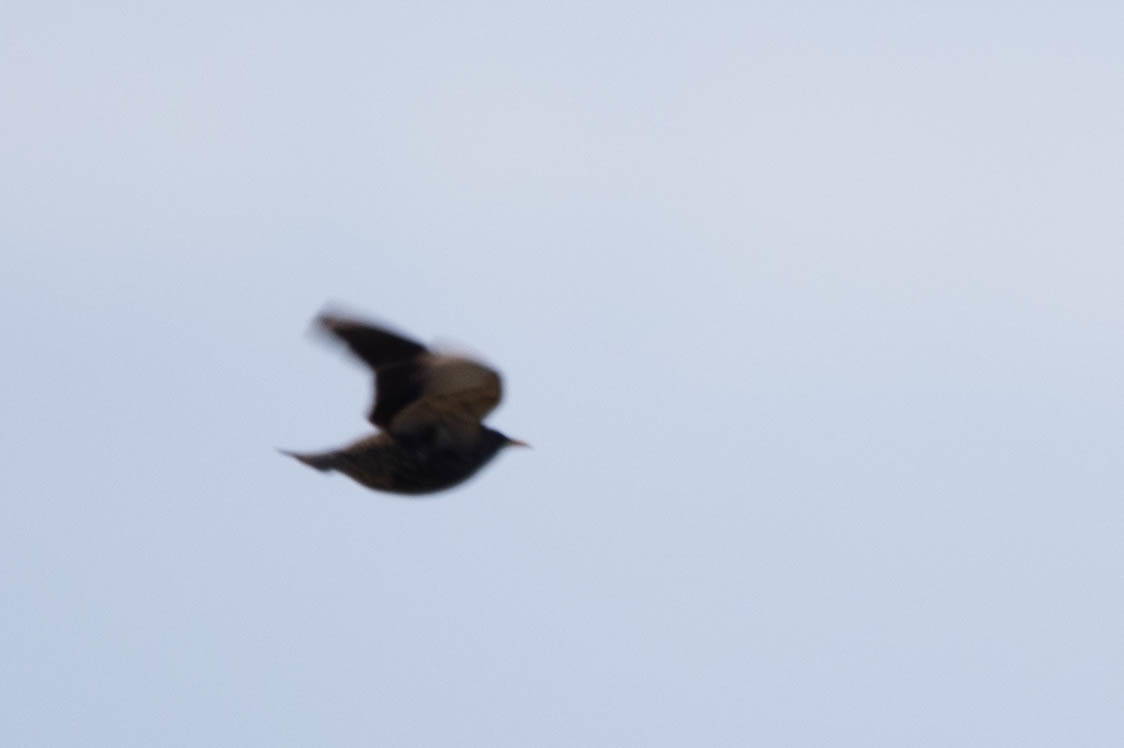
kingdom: Animalia
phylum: Chordata
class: Aves
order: Passeriformes
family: Sturnidae
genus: Sturnus
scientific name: Sturnus vulgaris
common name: Common starling
